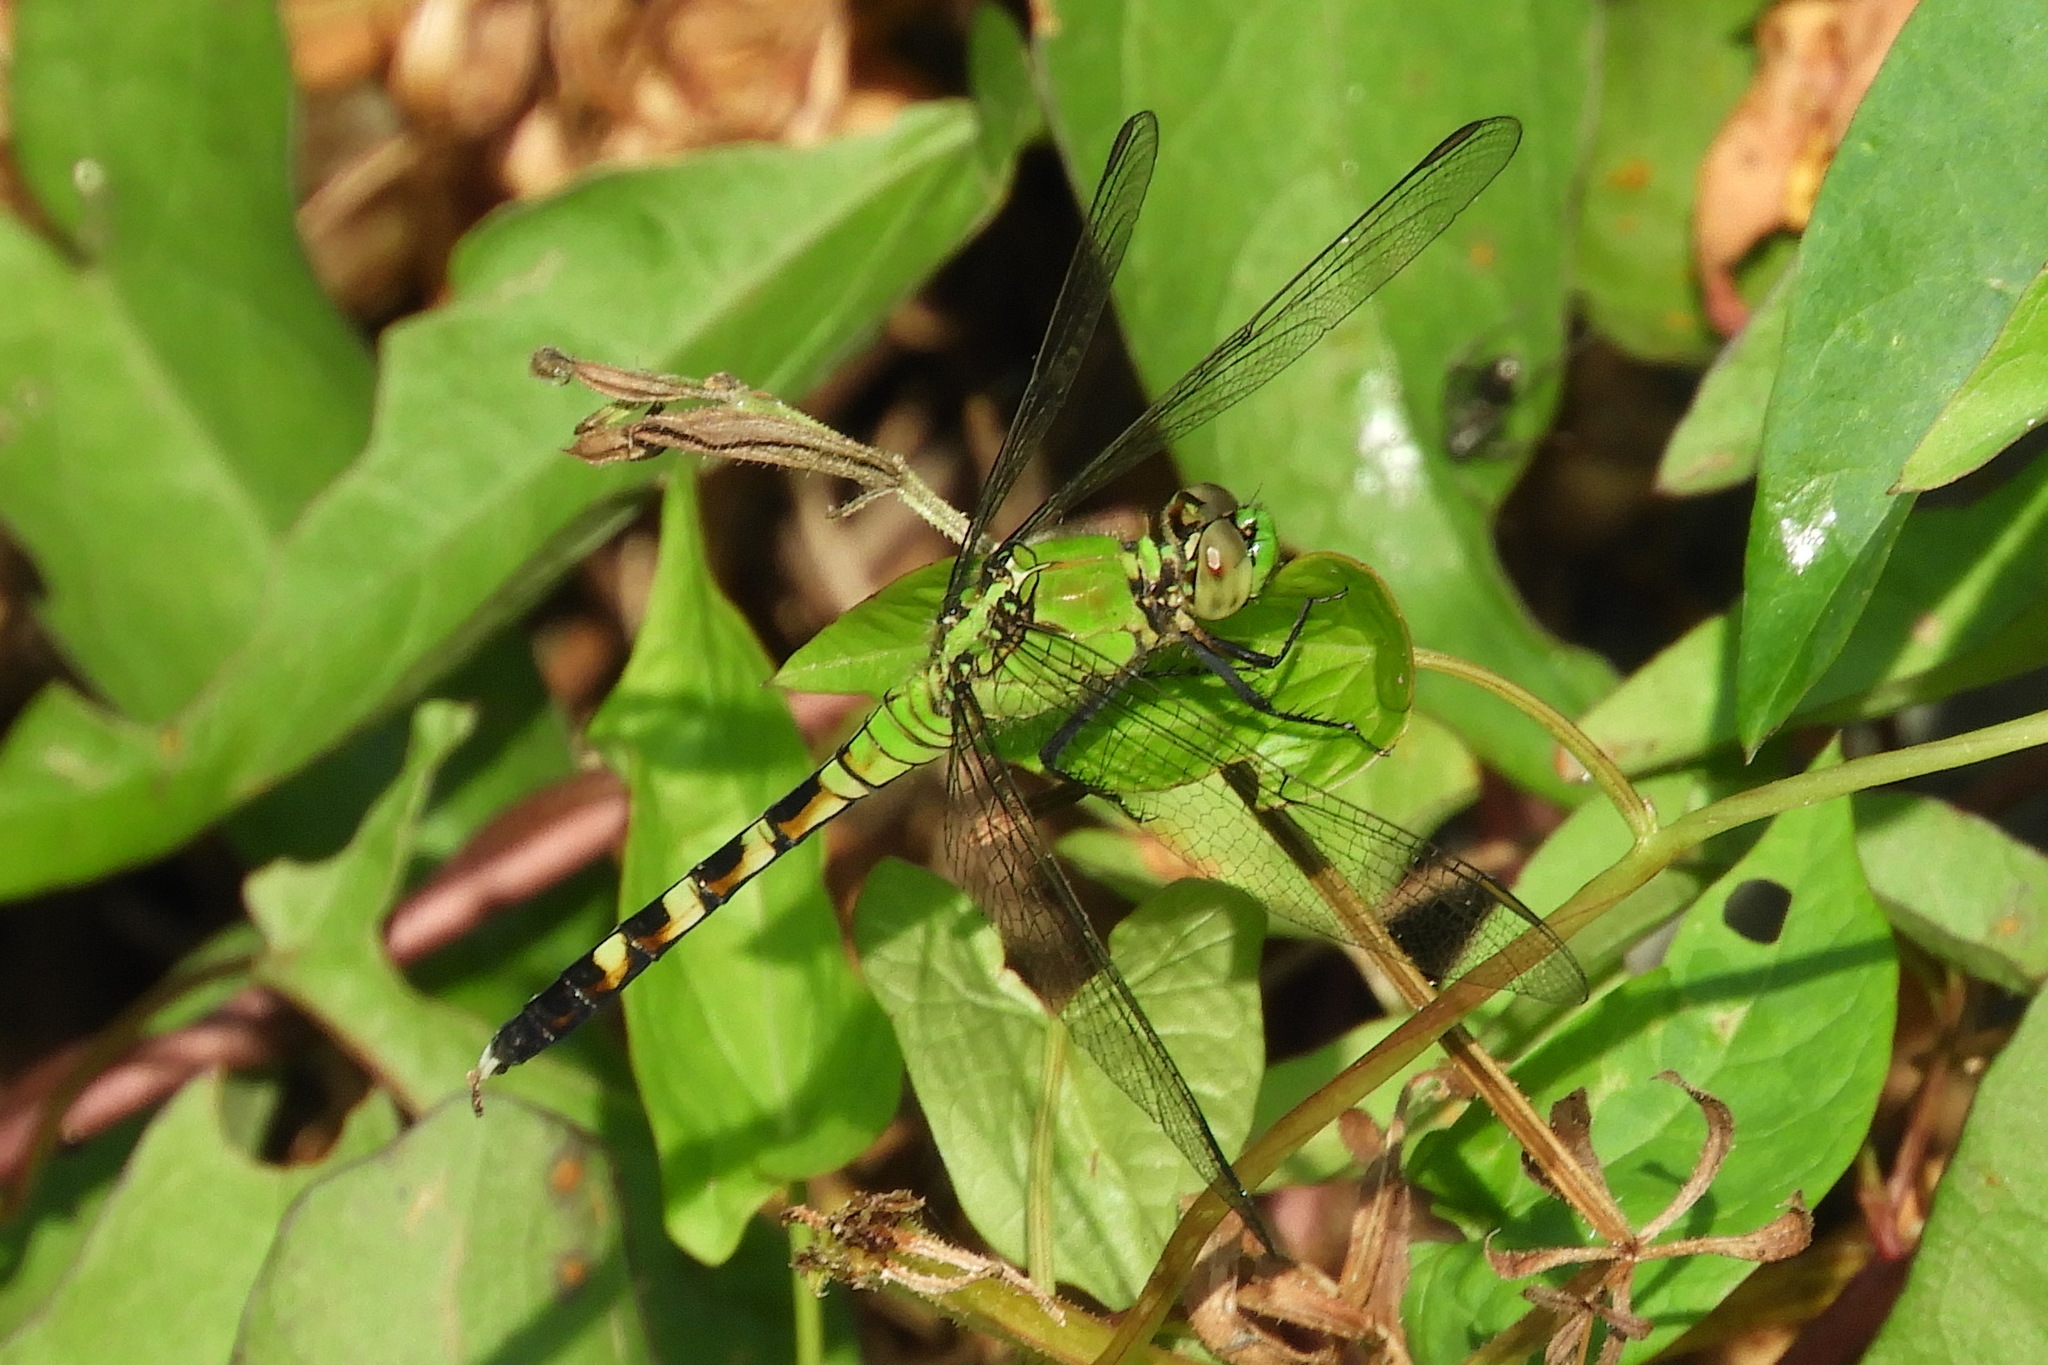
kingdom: Animalia
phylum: Arthropoda
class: Insecta
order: Odonata
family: Libellulidae
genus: Erythemis
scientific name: Erythemis simplicicollis
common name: Eastern pondhawk
